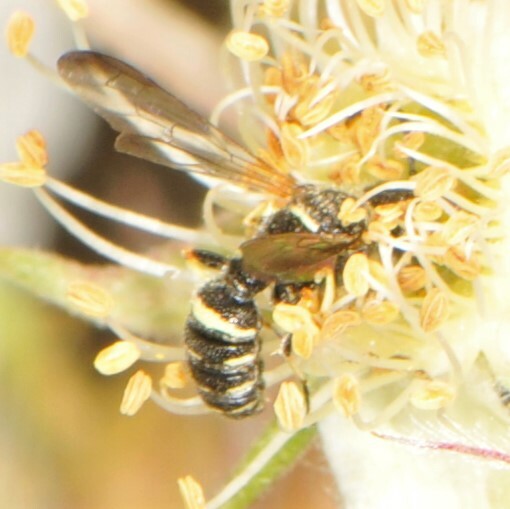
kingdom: Animalia
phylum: Arthropoda
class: Insecta
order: Hymenoptera
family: Crabronidae
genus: Cerceris
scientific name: Cerceris convergens
